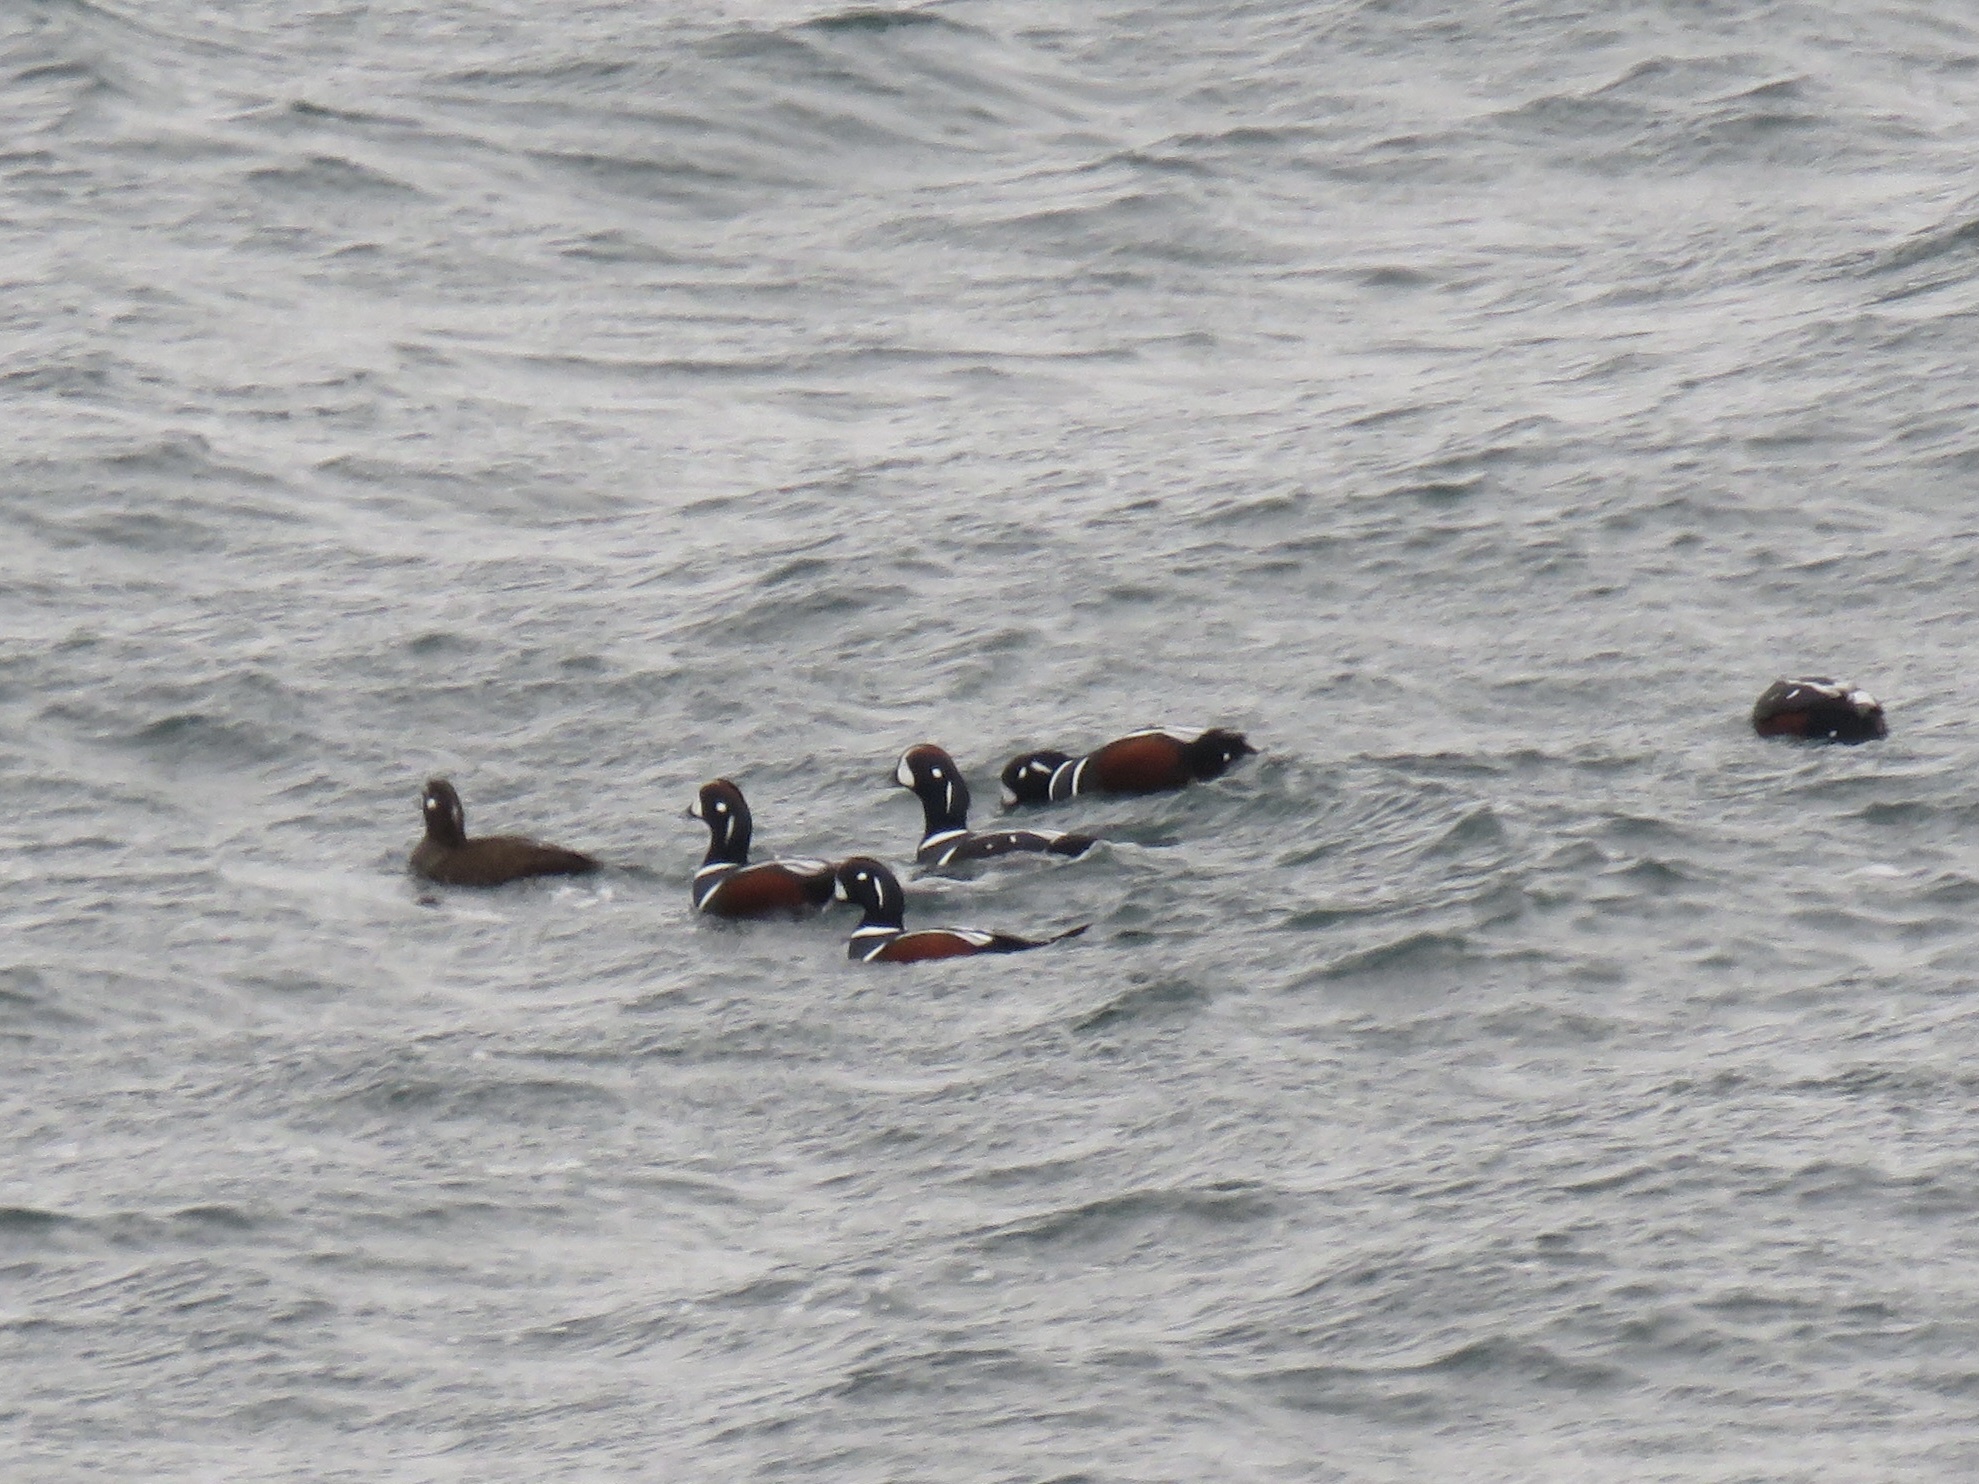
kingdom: Animalia
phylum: Chordata
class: Aves
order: Anseriformes
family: Anatidae
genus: Histrionicus
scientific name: Histrionicus histrionicus
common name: Harlequin duck
